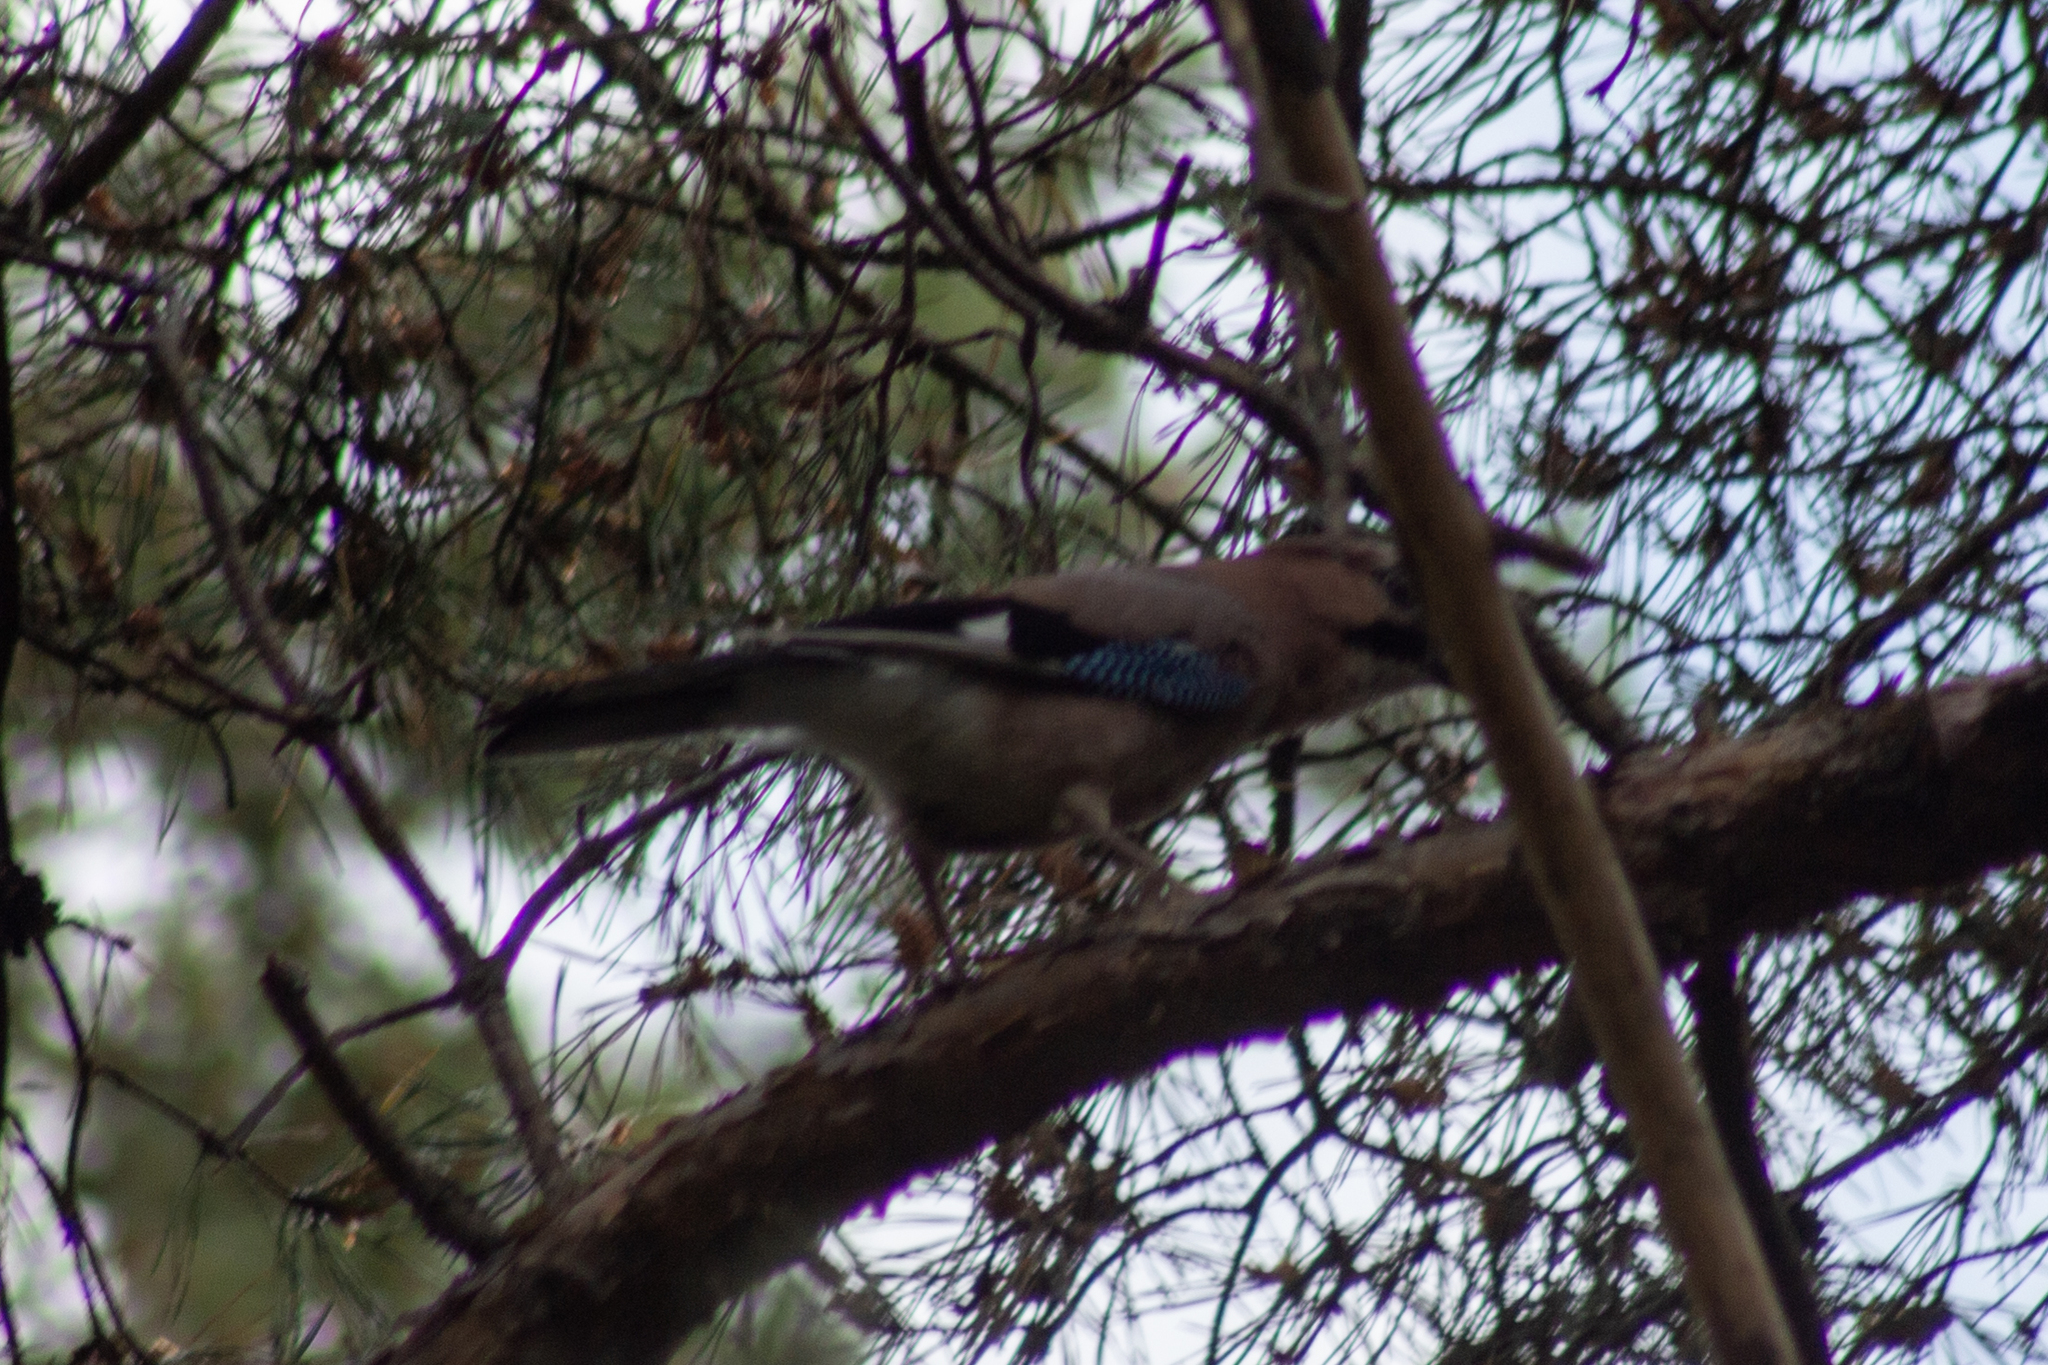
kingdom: Animalia
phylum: Chordata
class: Aves
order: Passeriformes
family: Corvidae
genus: Garrulus
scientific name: Garrulus glandarius
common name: Eurasian jay
